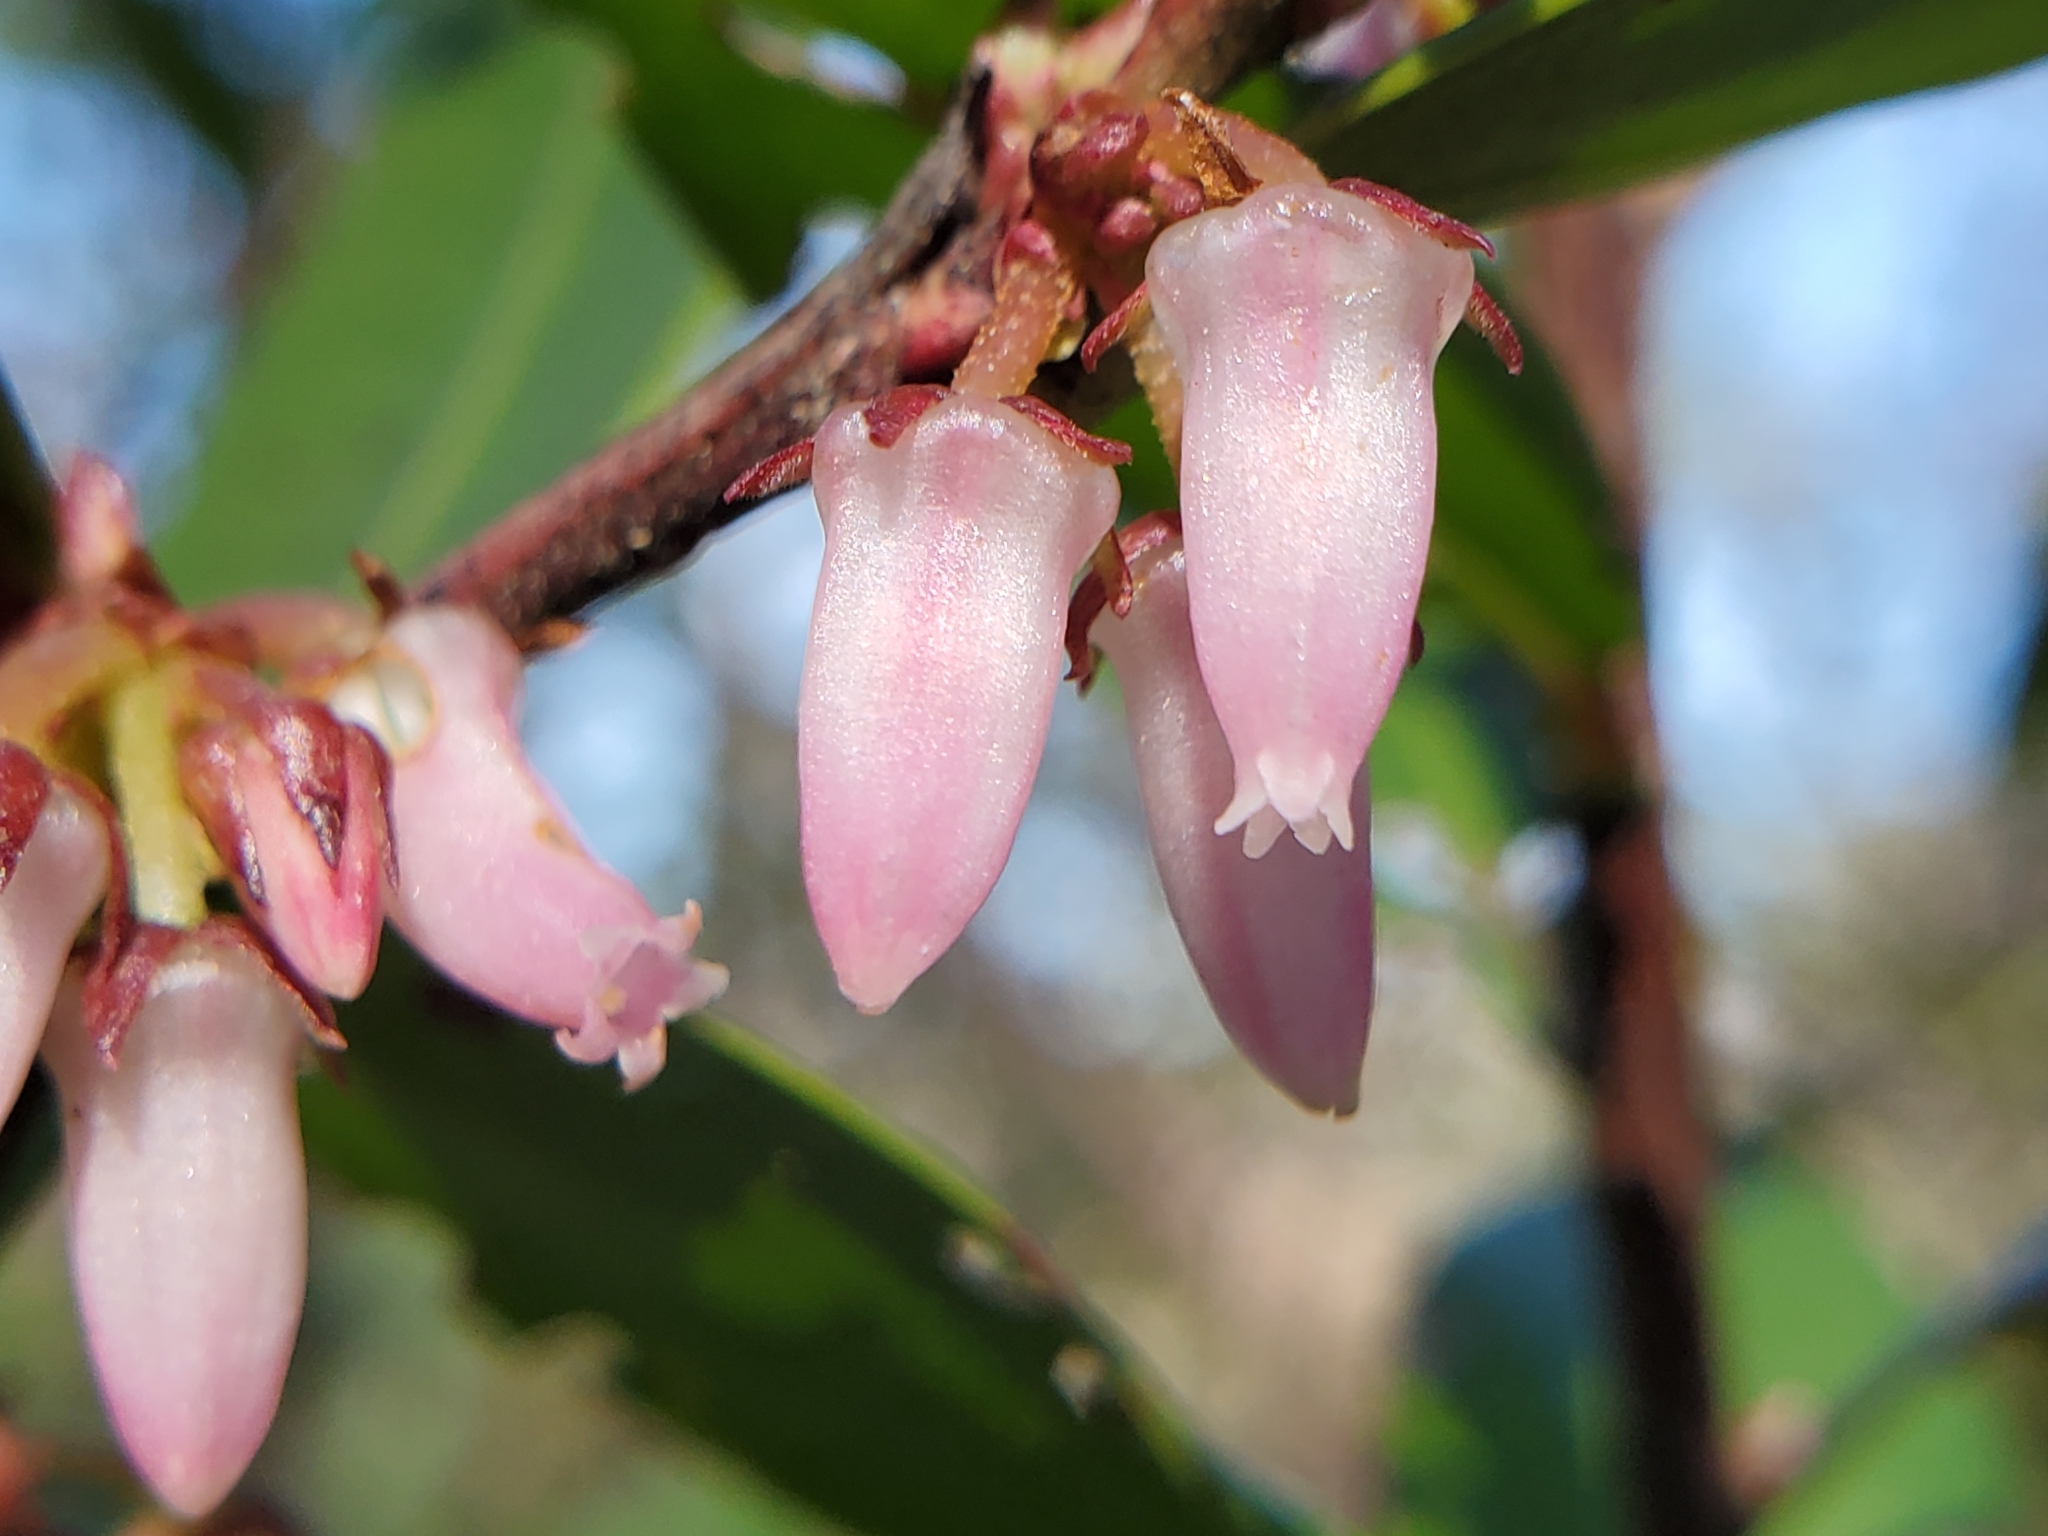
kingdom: Plantae
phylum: Tracheophyta
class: Magnoliopsida
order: Ericales
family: Ericaceae
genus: Lyonia
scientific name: Lyonia lucida
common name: Fetterbush
